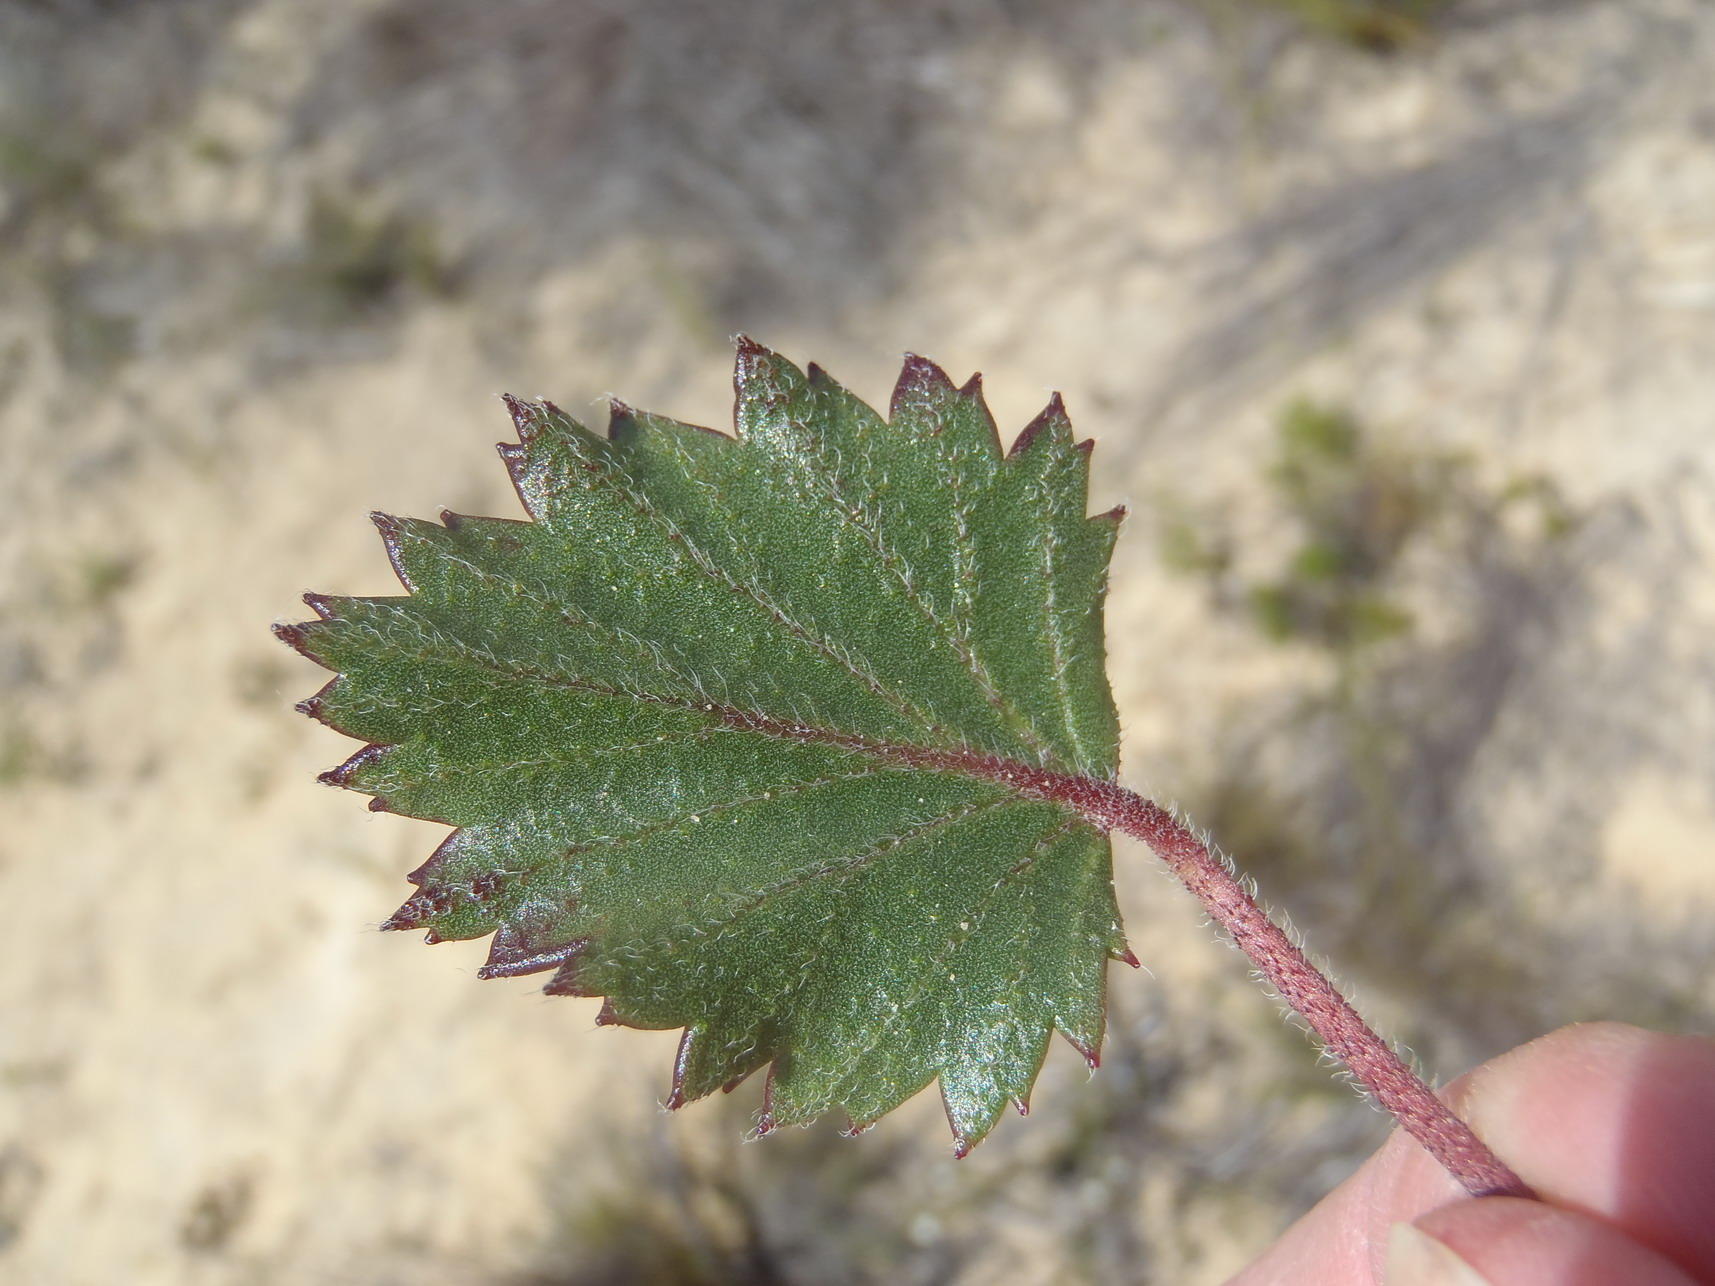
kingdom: Plantae
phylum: Tracheophyta
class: Magnoliopsida
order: Geraniales
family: Geraniaceae
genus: Pelargonium
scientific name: Pelargonium elegans
